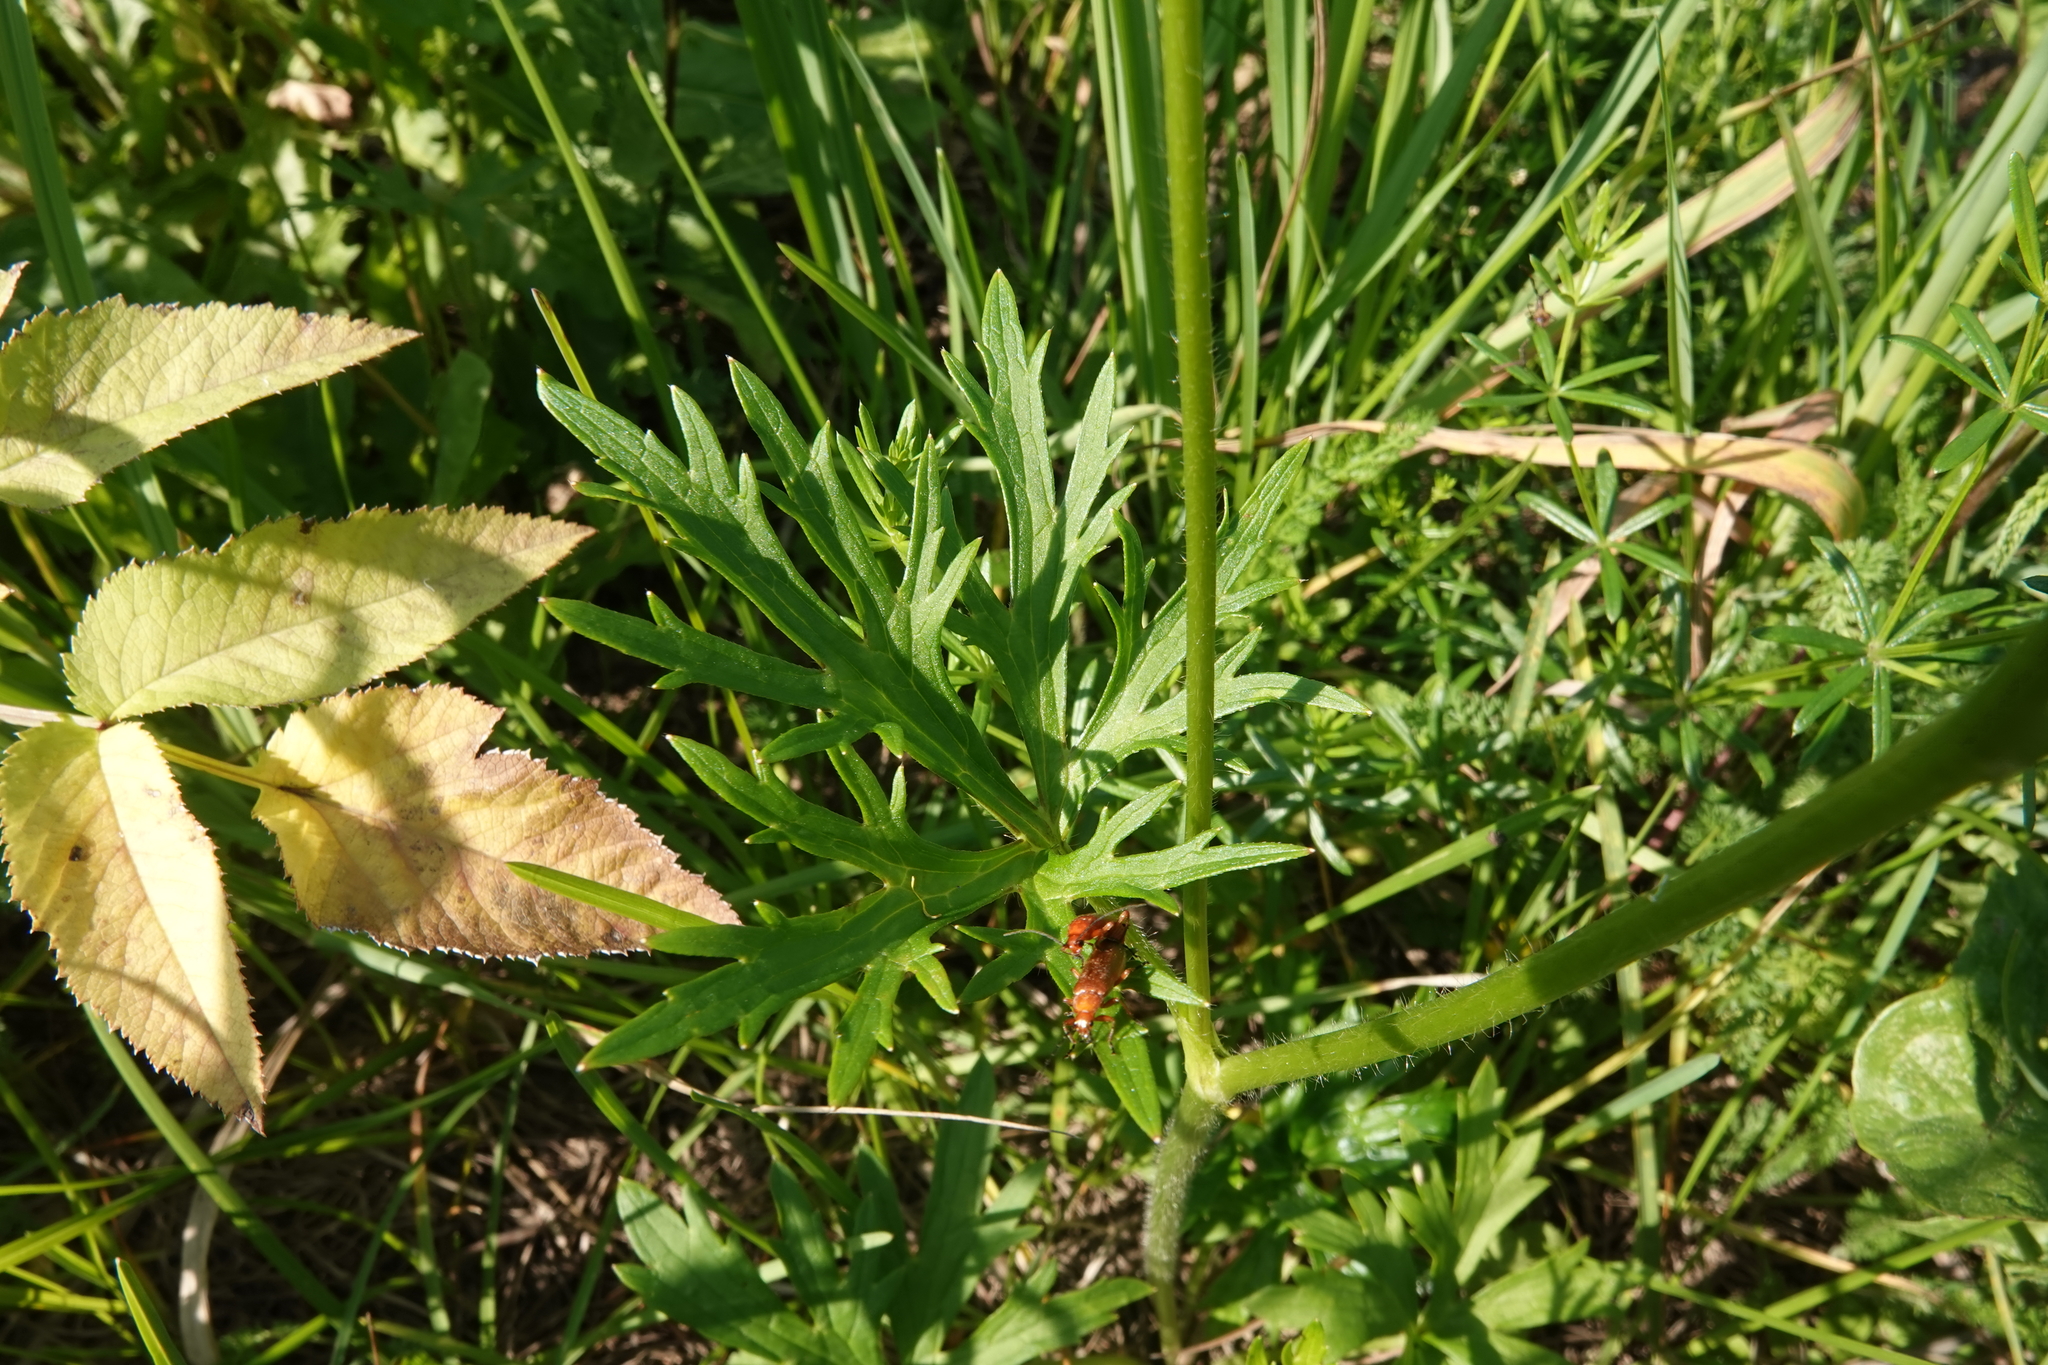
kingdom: Plantae
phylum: Tracheophyta
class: Magnoliopsida
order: Ranunculales
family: Ranunculaceae
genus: Ranunculus
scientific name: Ranunculus polyanthemos
